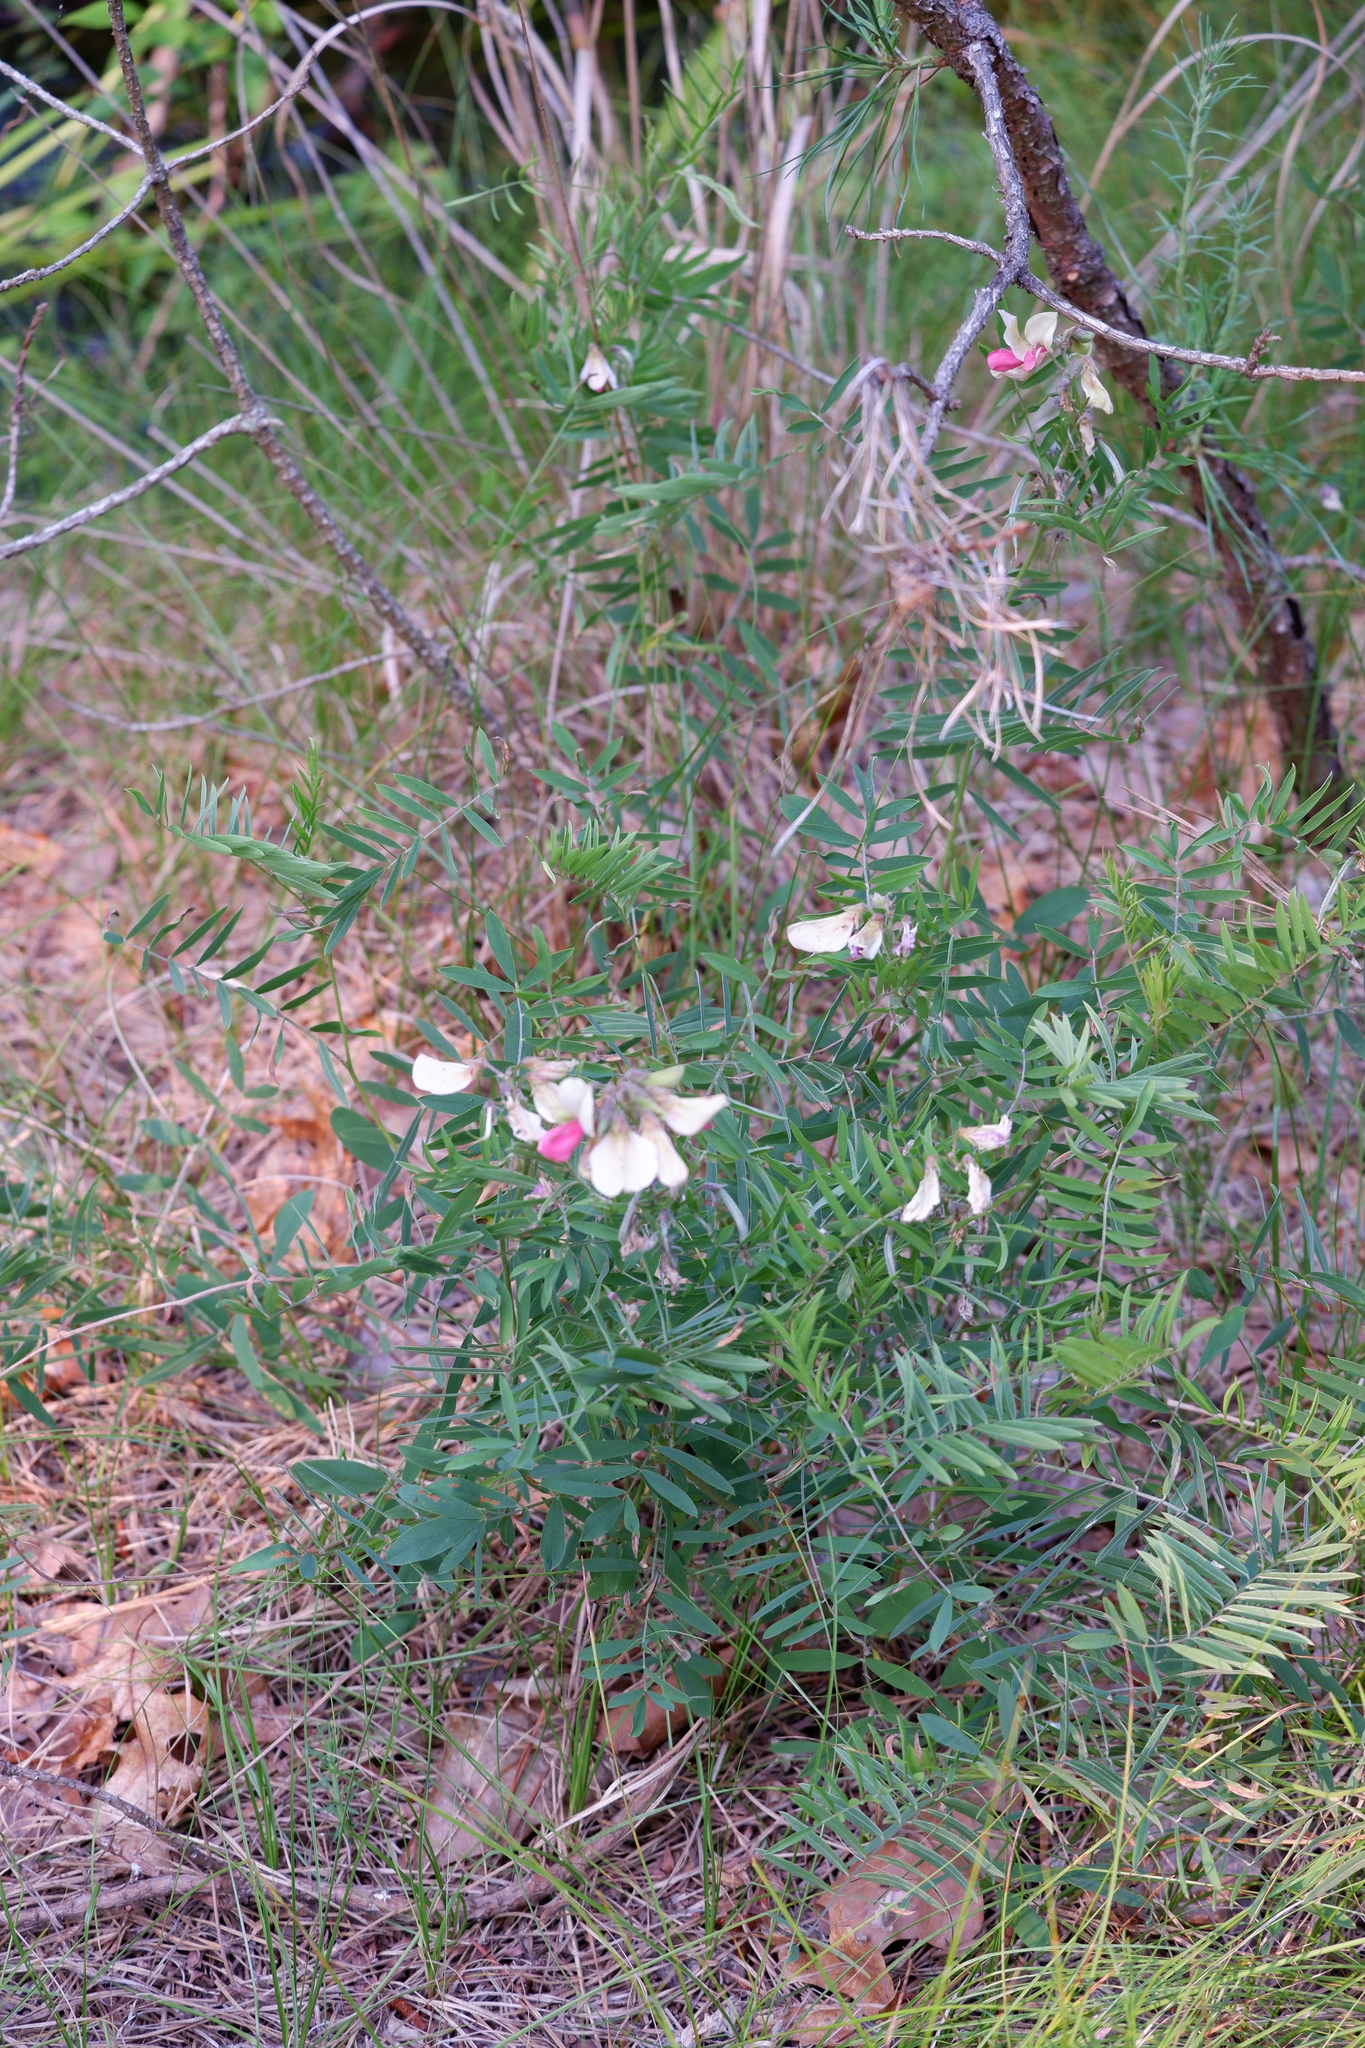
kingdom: Plantae
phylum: Tracheophyta
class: Magnoliopsida
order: Fabales
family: Fabaceae
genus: Tephrosia
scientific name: Tephrosia virginiana
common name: Rabbit-pea
